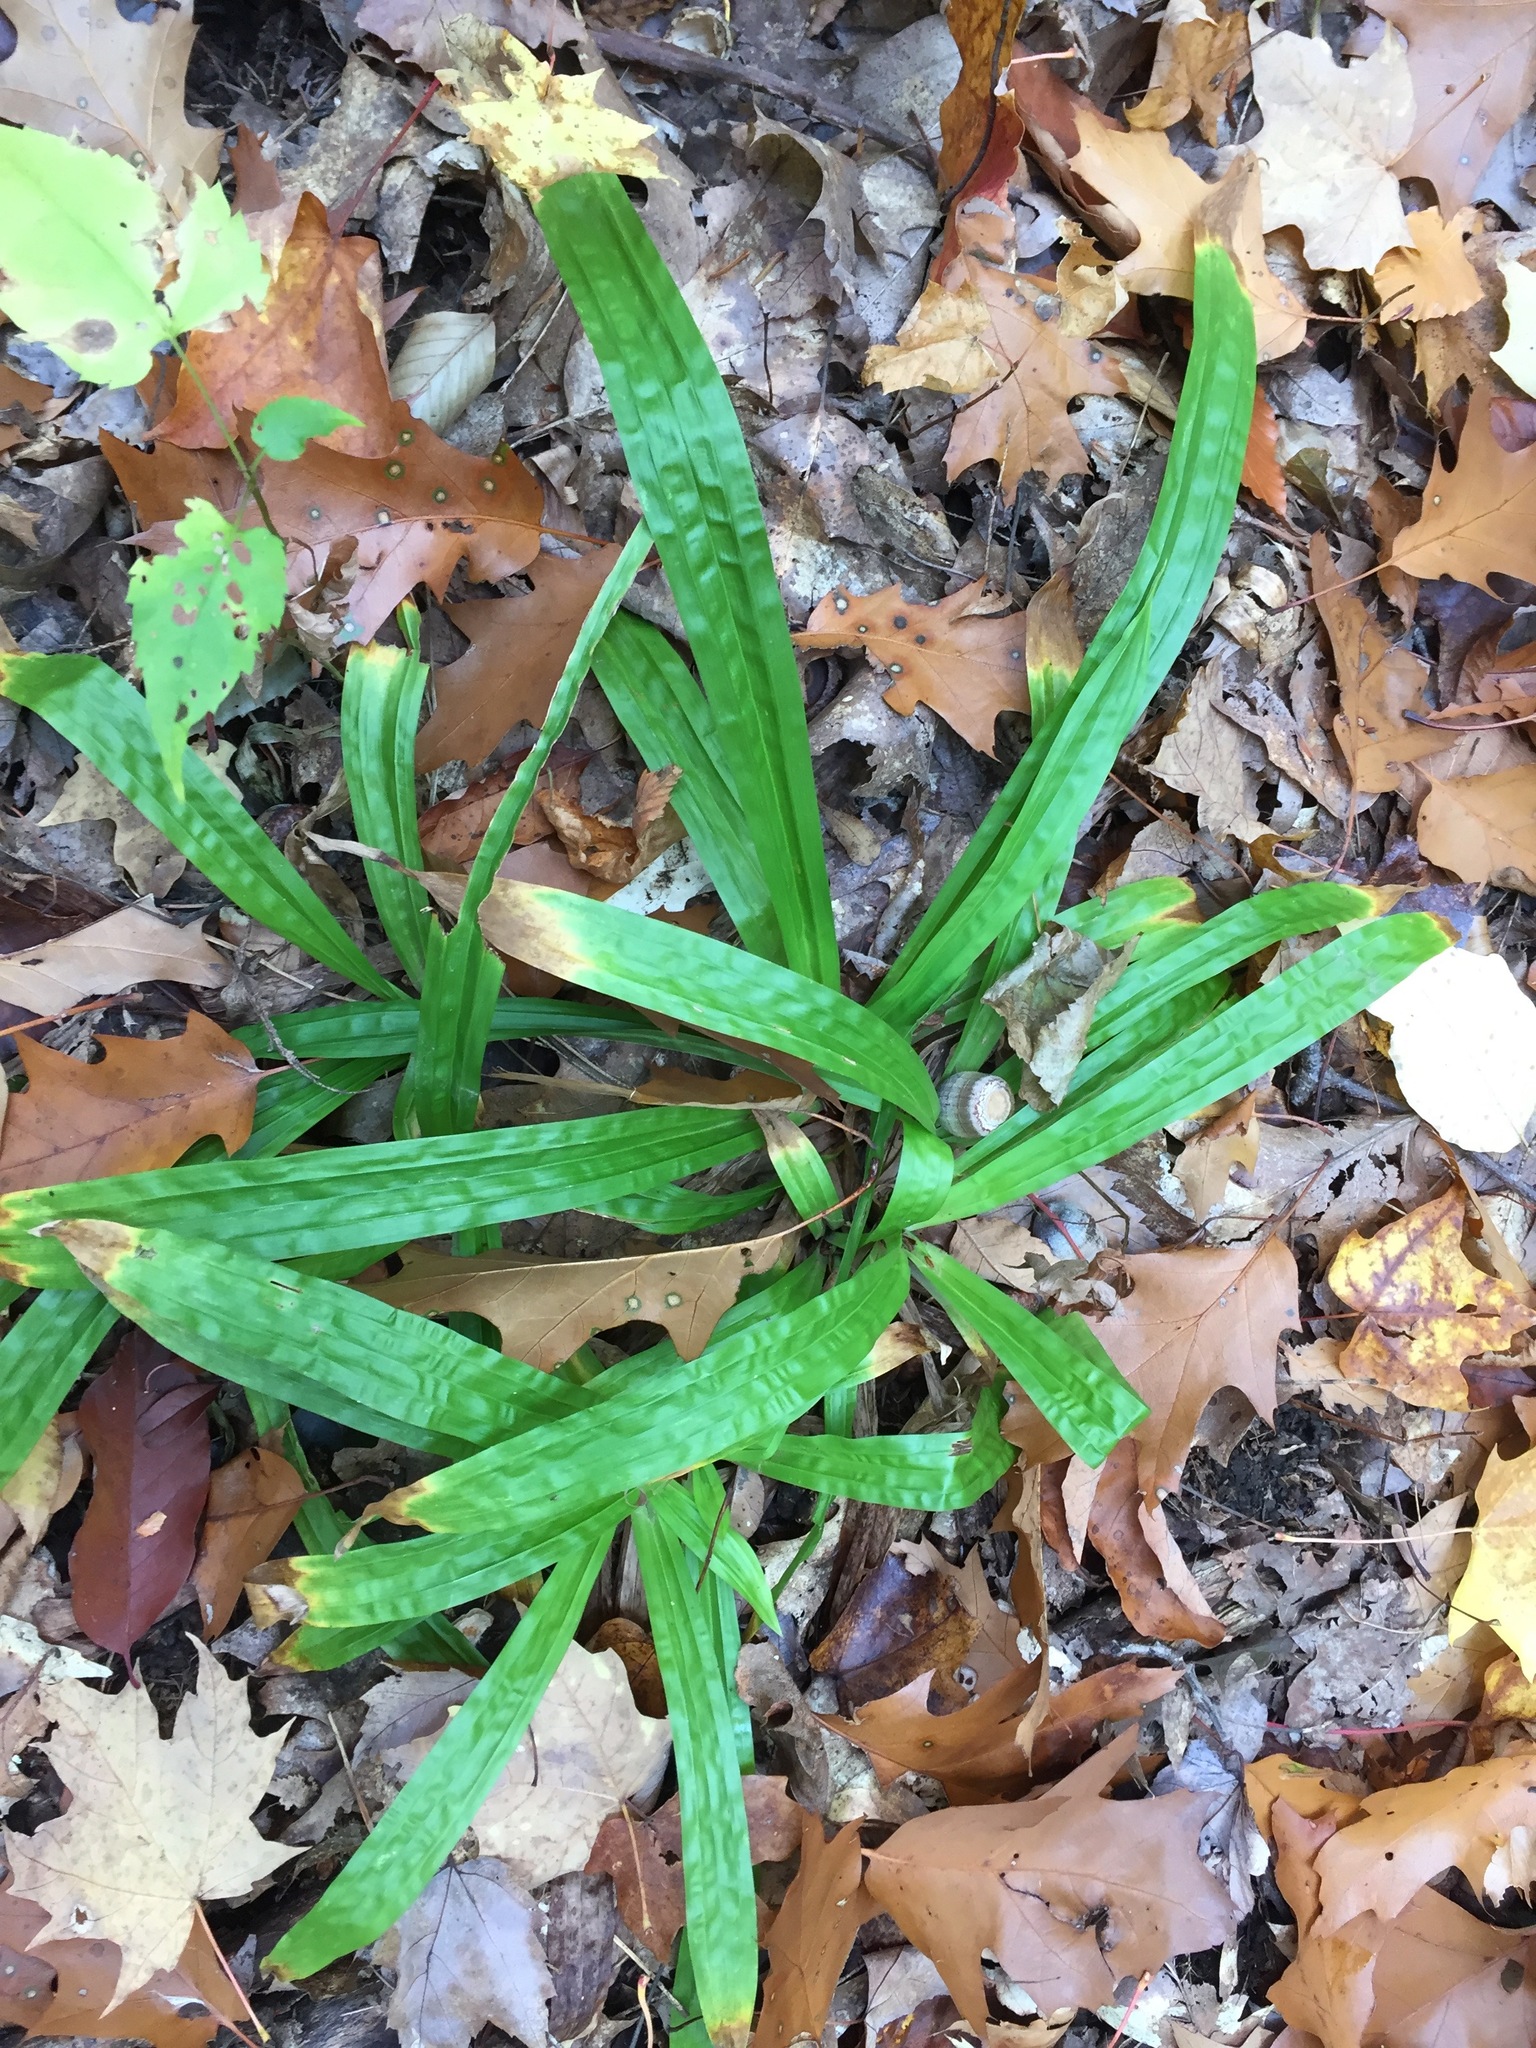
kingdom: Plantae
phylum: Tracheophyta
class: Liliopsida
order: Poales
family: Cyperaceae
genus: Carex
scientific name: Carex plantaginea
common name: Plantain-leaved sedge
